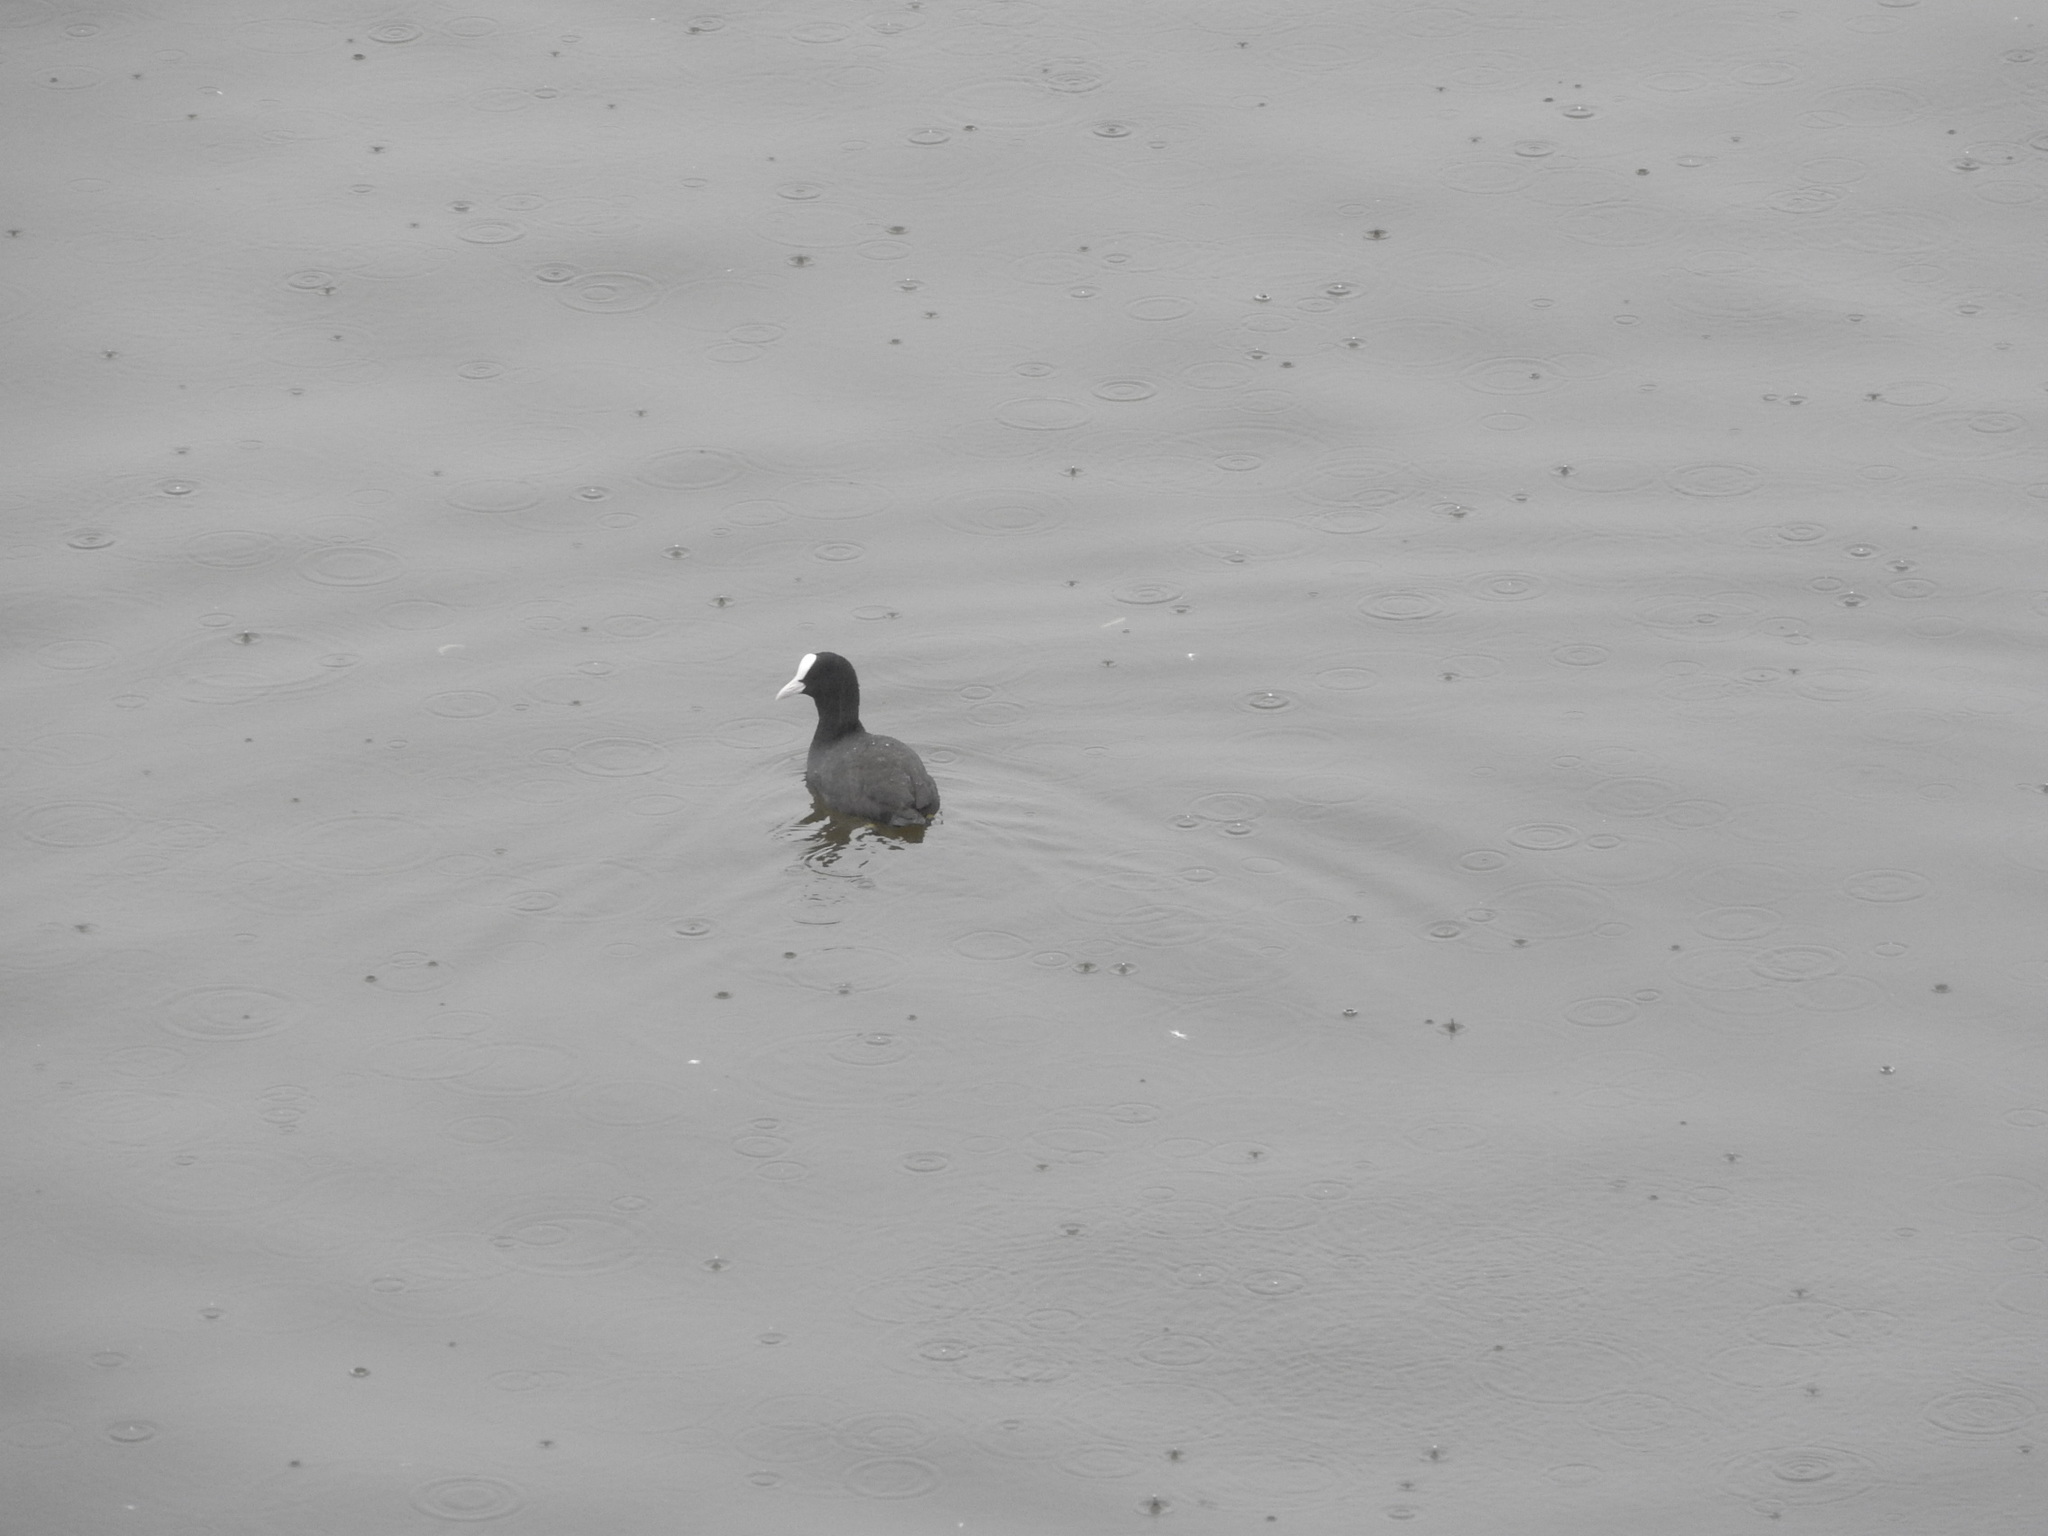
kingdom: Animalia
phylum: Chordata
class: Aves
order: Gruiformes
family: Rallidae
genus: Fulica
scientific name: Fulica atra
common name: Eurasian coot
